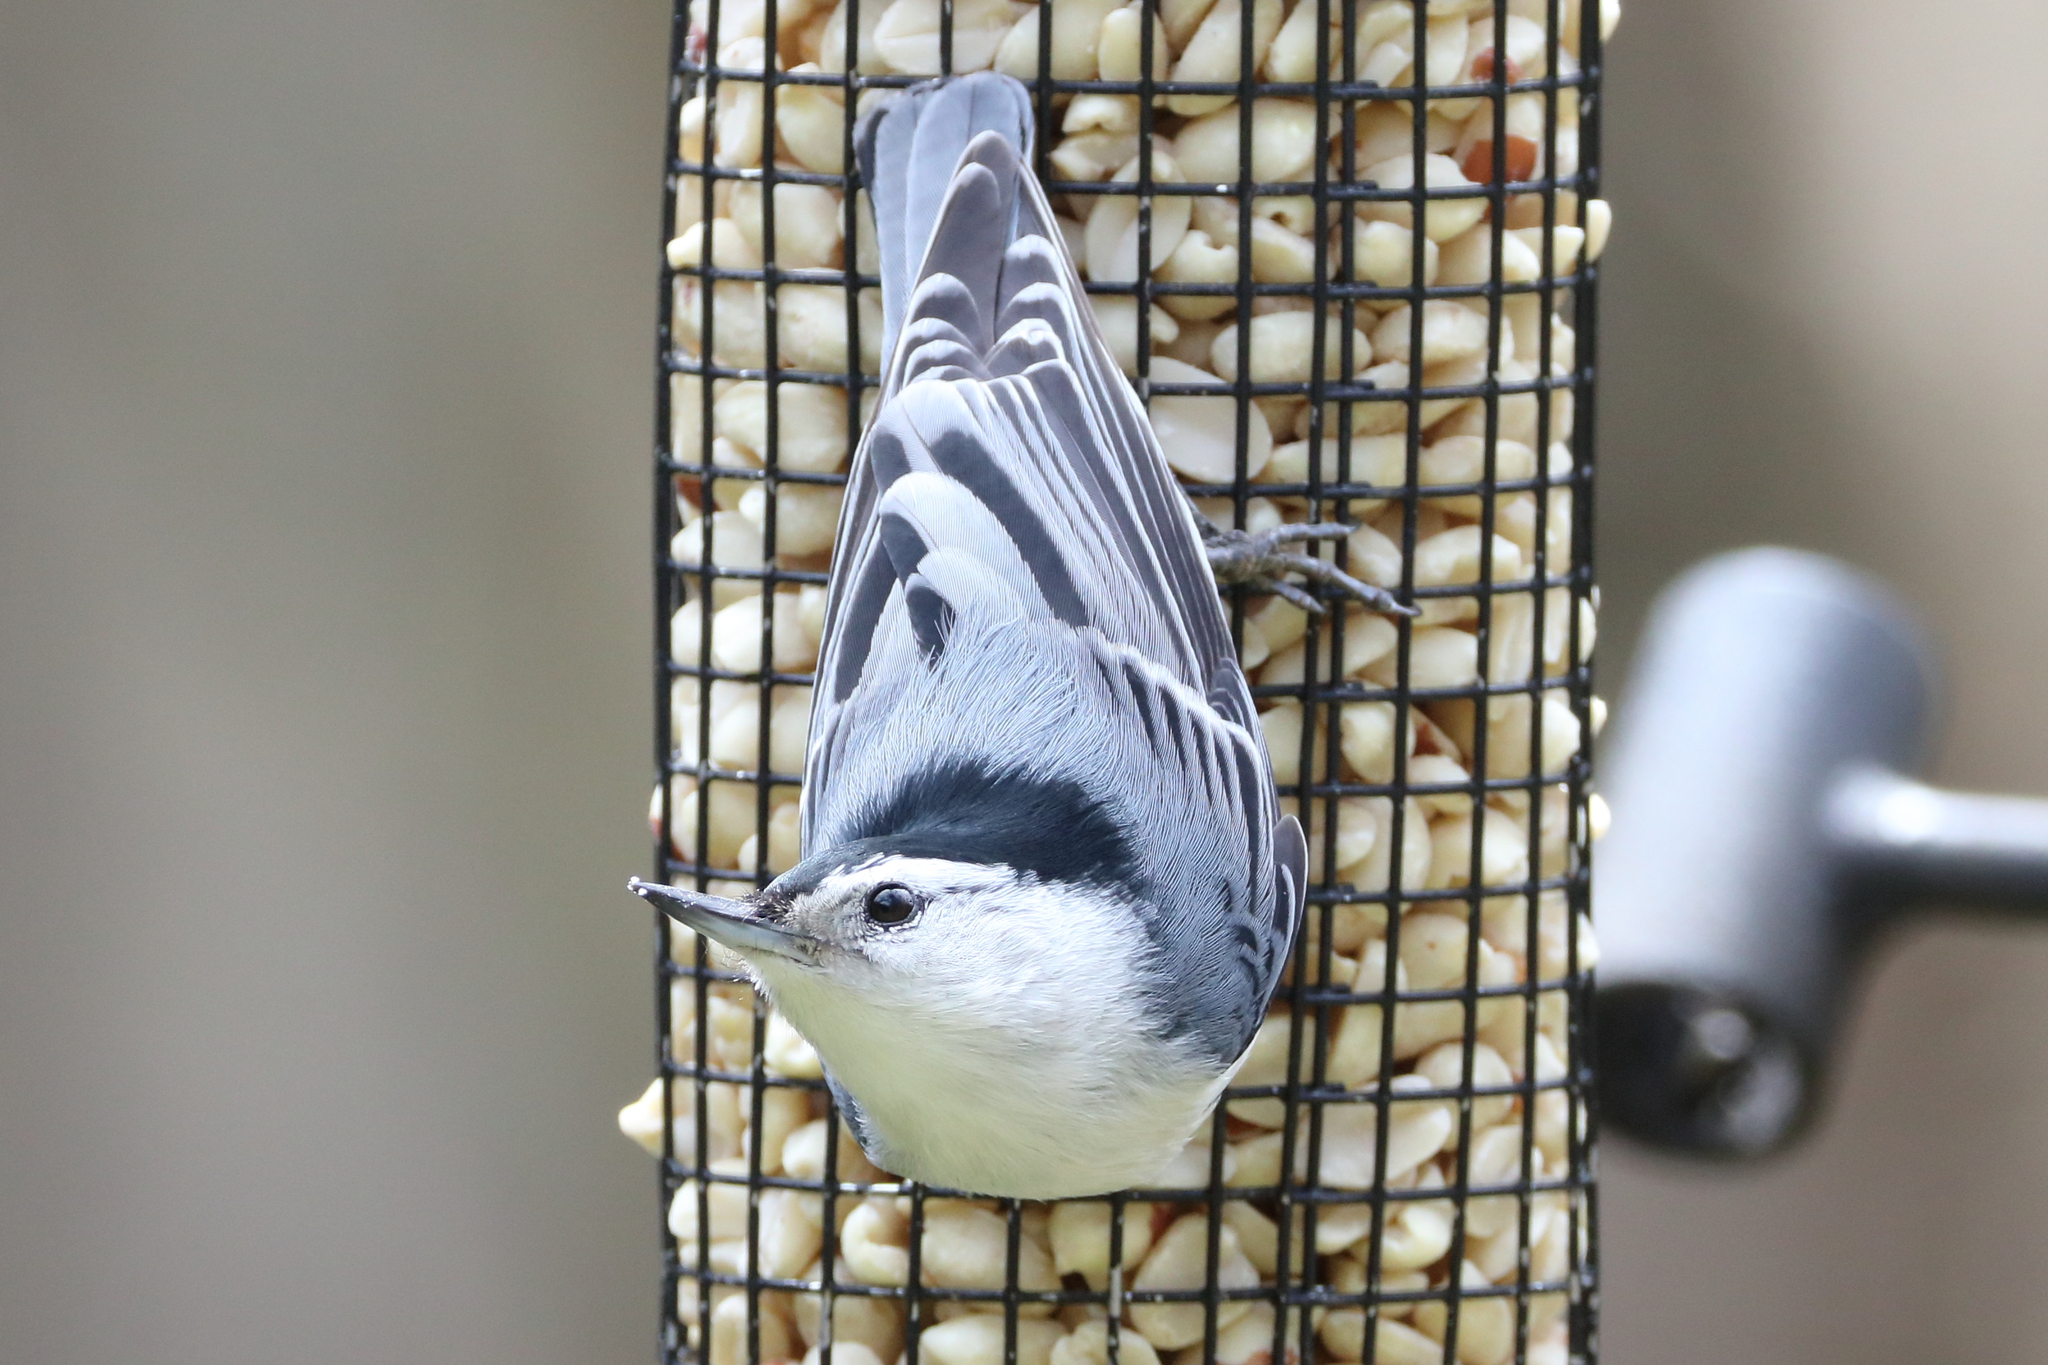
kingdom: Animalia
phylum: Chordata
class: Aves
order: Passeriformes
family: Sittidae
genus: Sitta
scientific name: Sitta carolinensis
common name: White-breasted nuthatch
